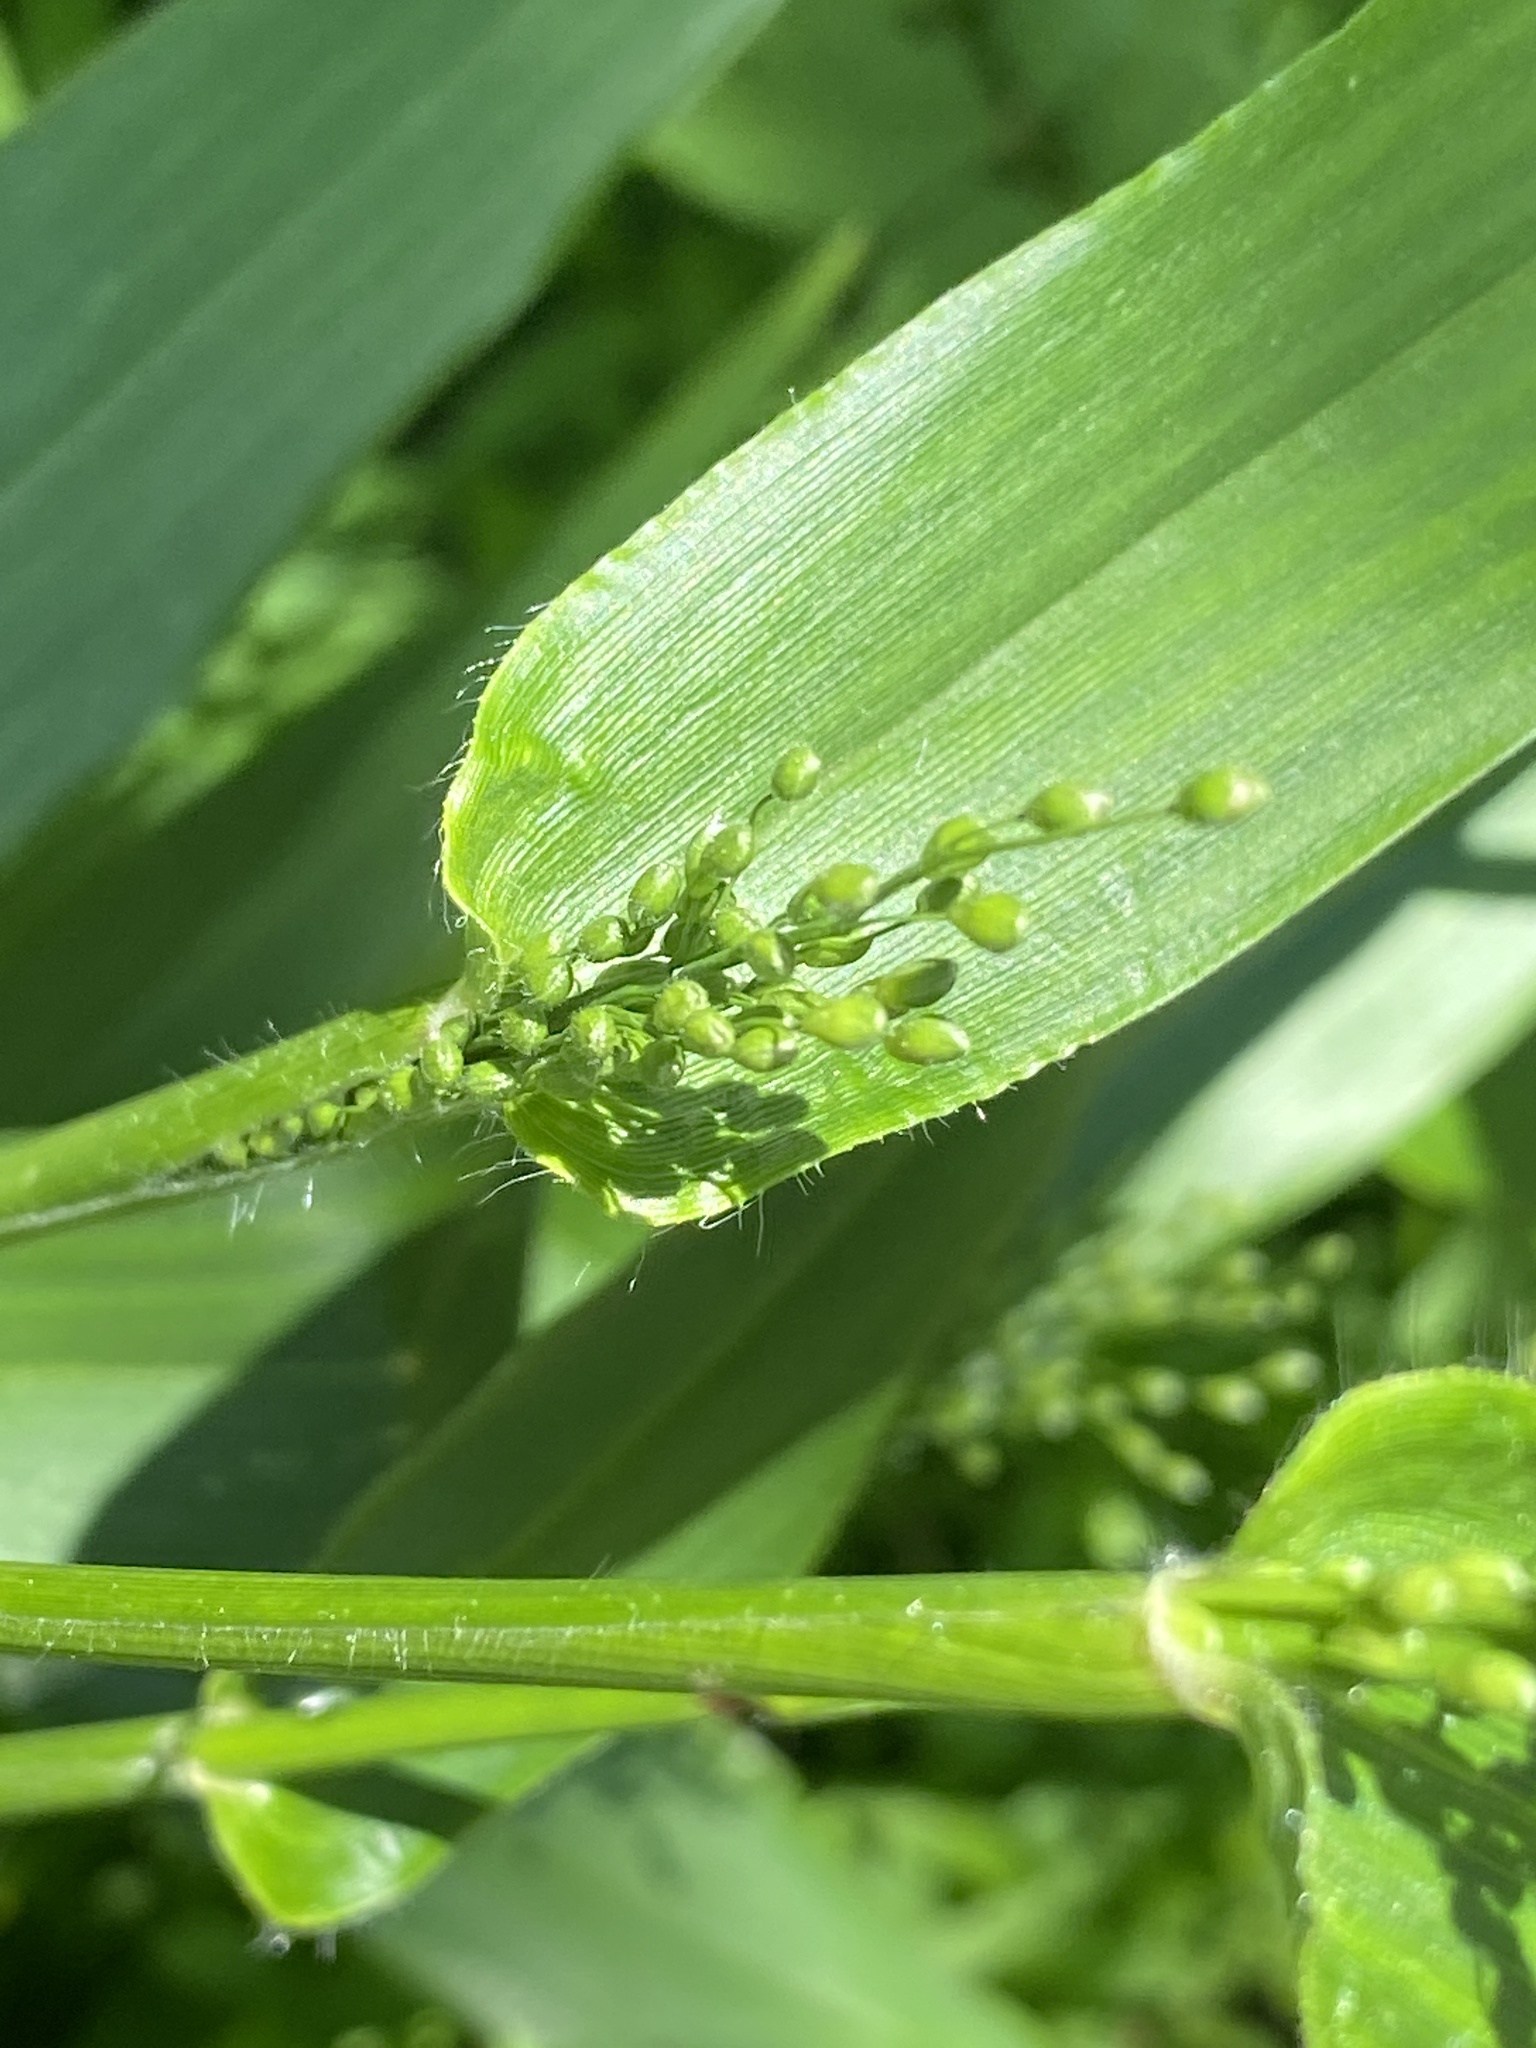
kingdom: Plantae
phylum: Tracheophyta
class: Liliopsida
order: Poales
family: Poaceae
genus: Dichanthelium
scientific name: Dichanthelium clandestinum
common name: Deer-tongue grass
